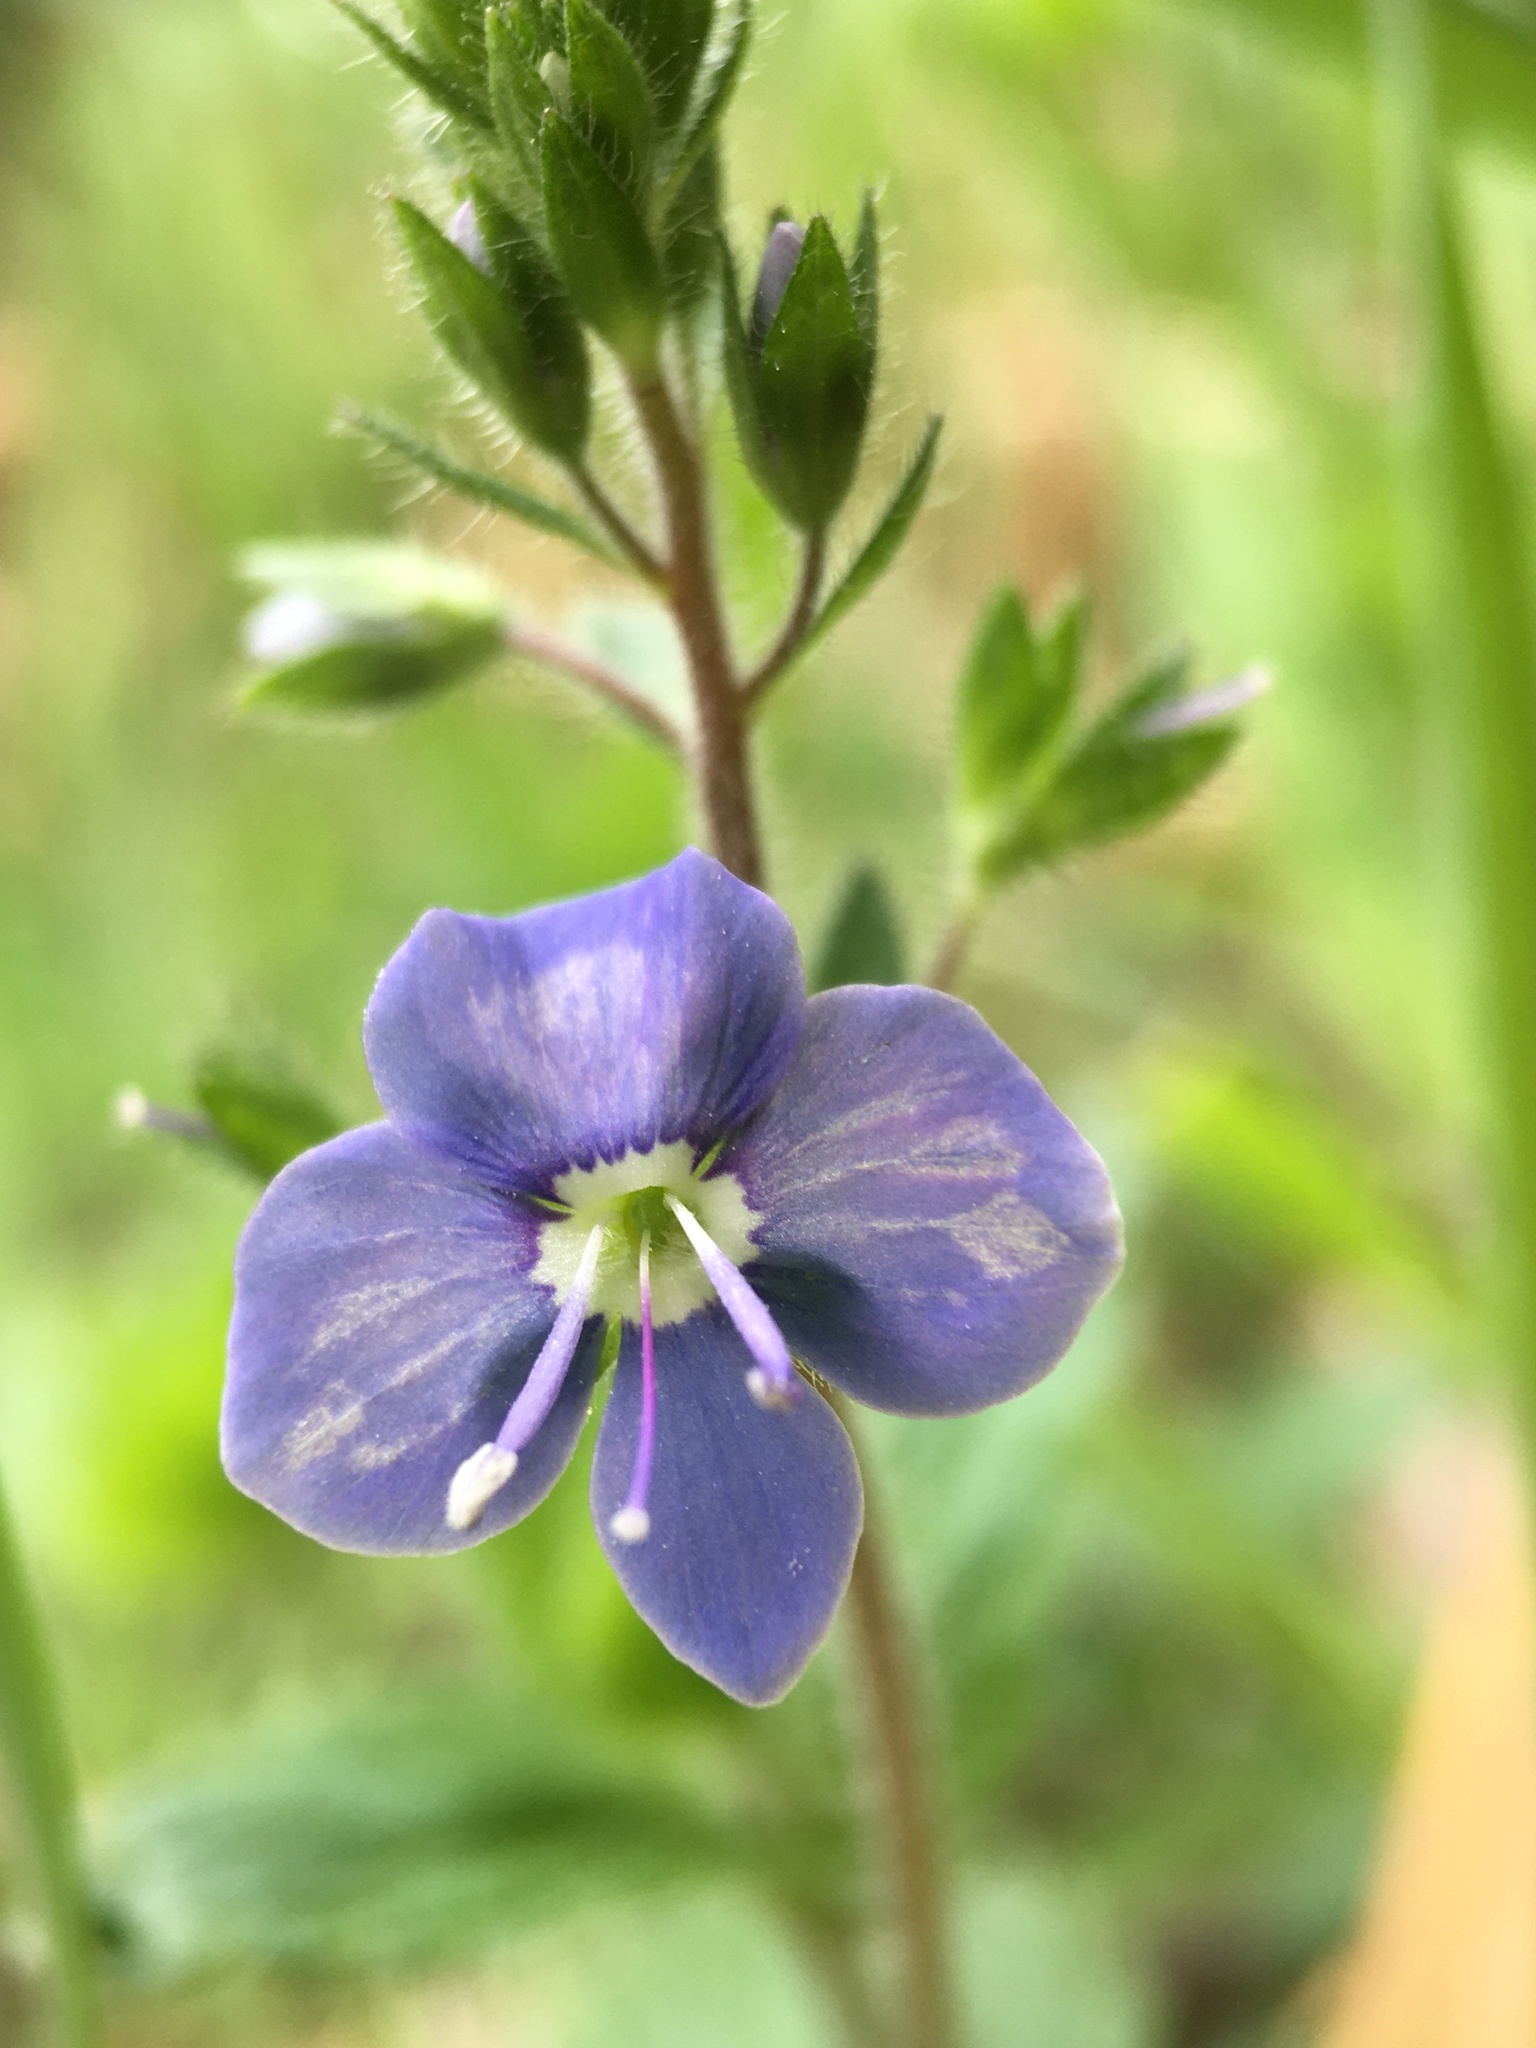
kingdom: Plantae
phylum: Tracheophyta
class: Magnoliopsida
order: Lamiales
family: Plantaginaceae
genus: Veronica
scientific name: Veronica chamaedrys
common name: Germander speedwell
